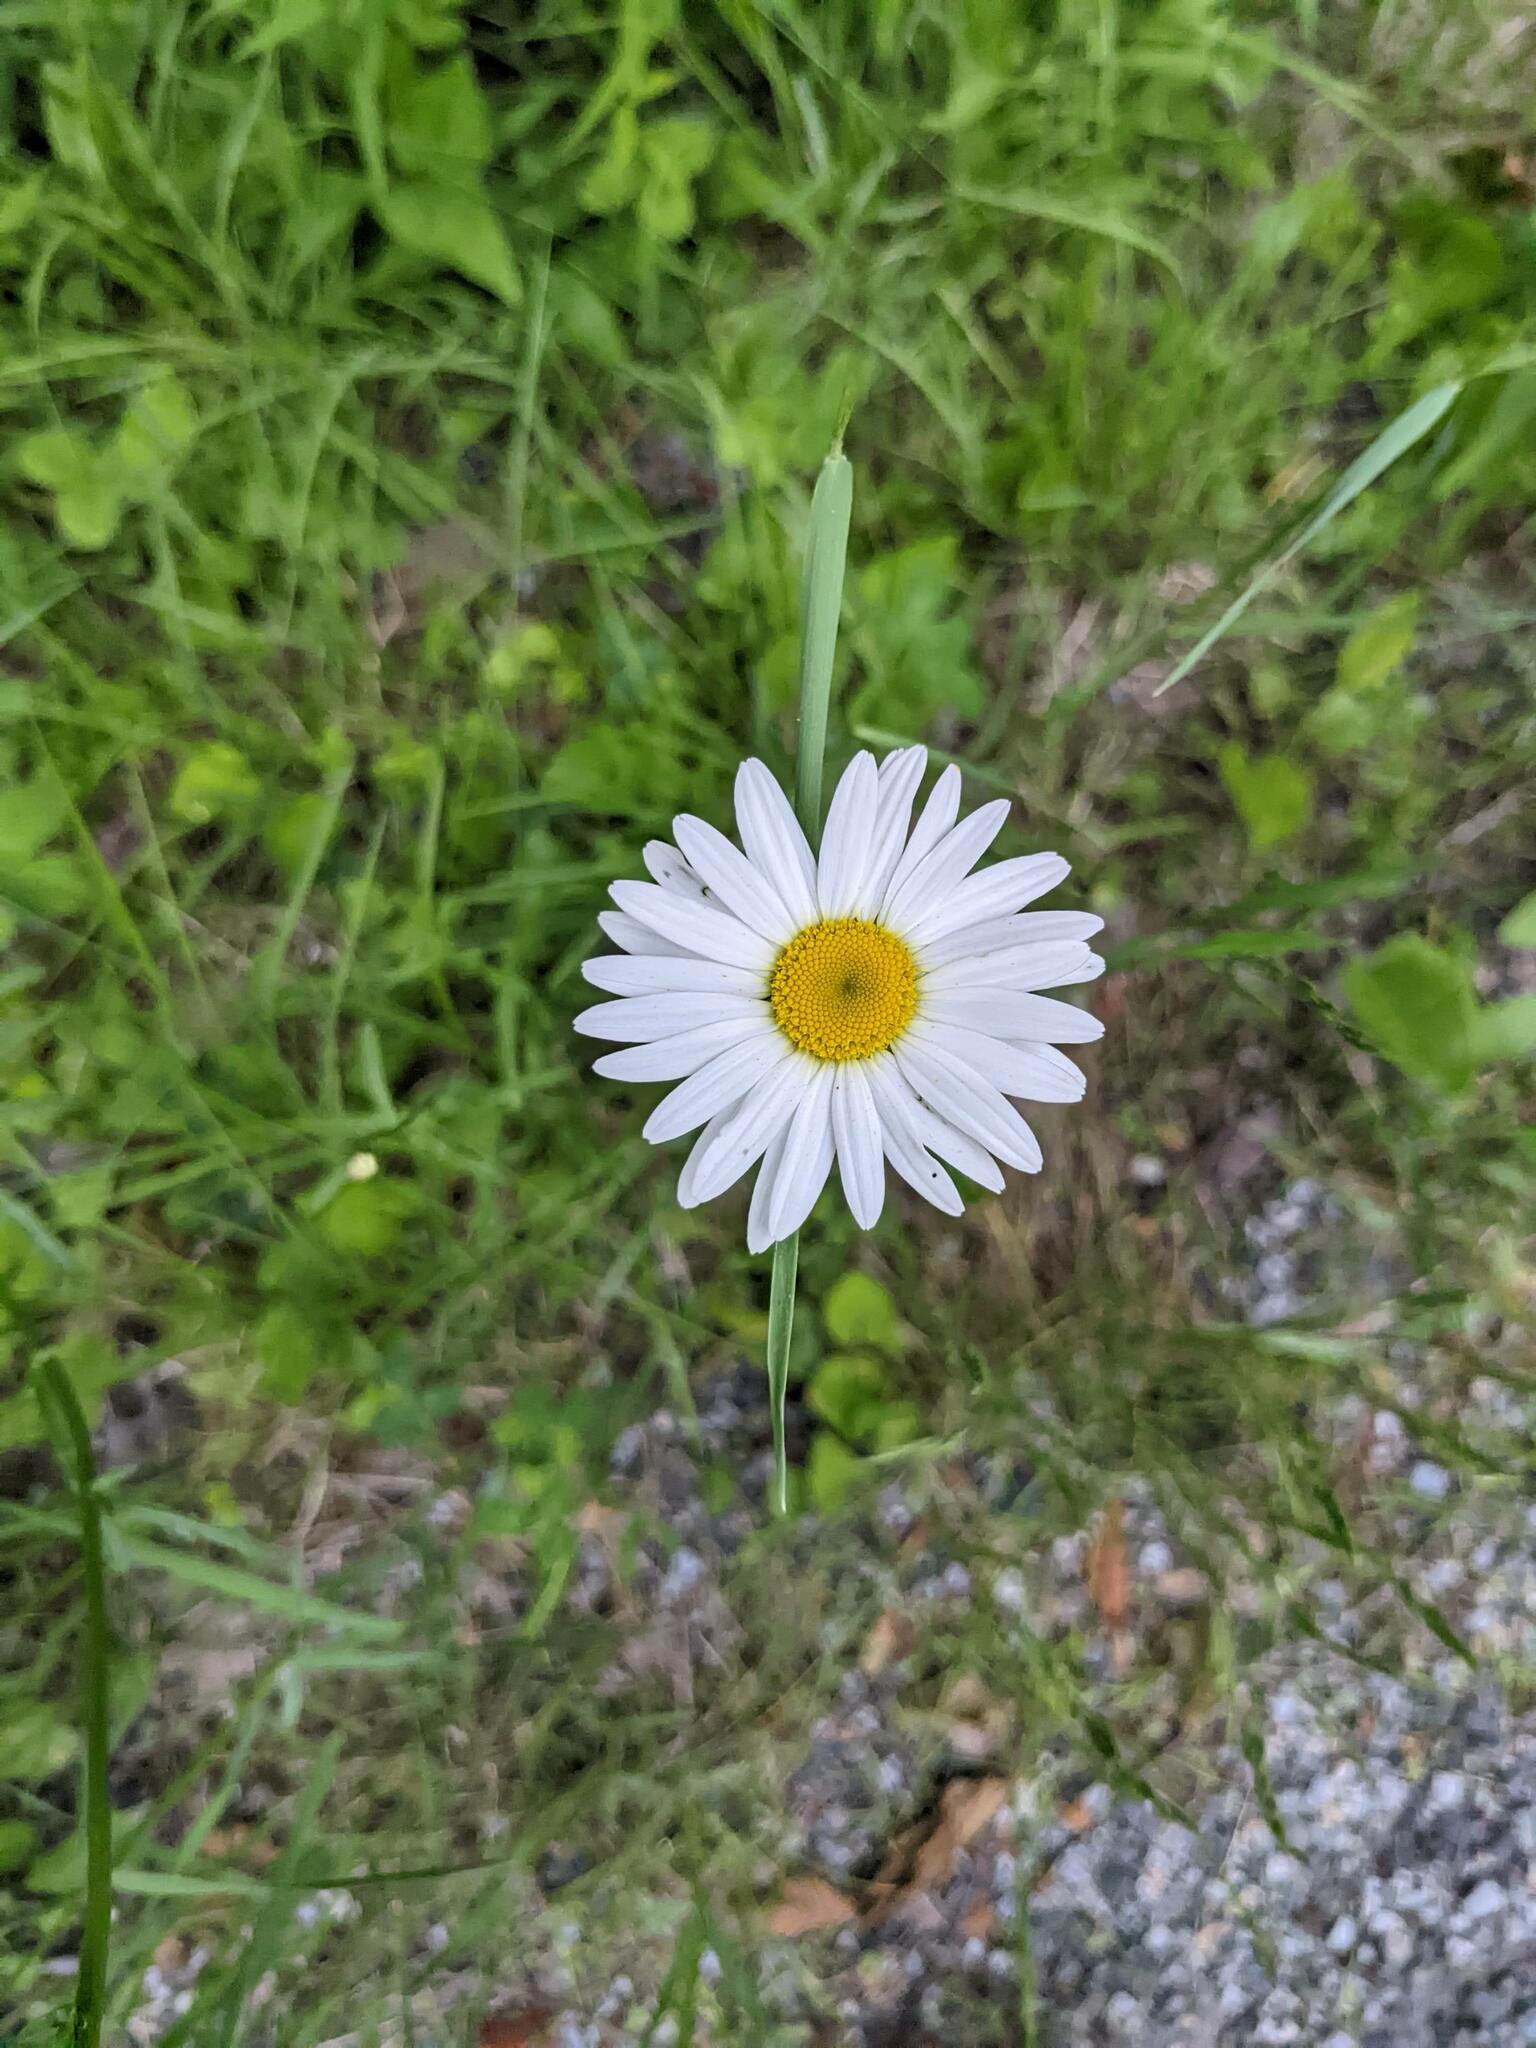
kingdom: Plantae
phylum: Tracheophyta
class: Magnoliopsida
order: Asterales
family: Asteraceae
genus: Leucanthemum
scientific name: Leucanthemum vulgare
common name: Oxeye daisy
